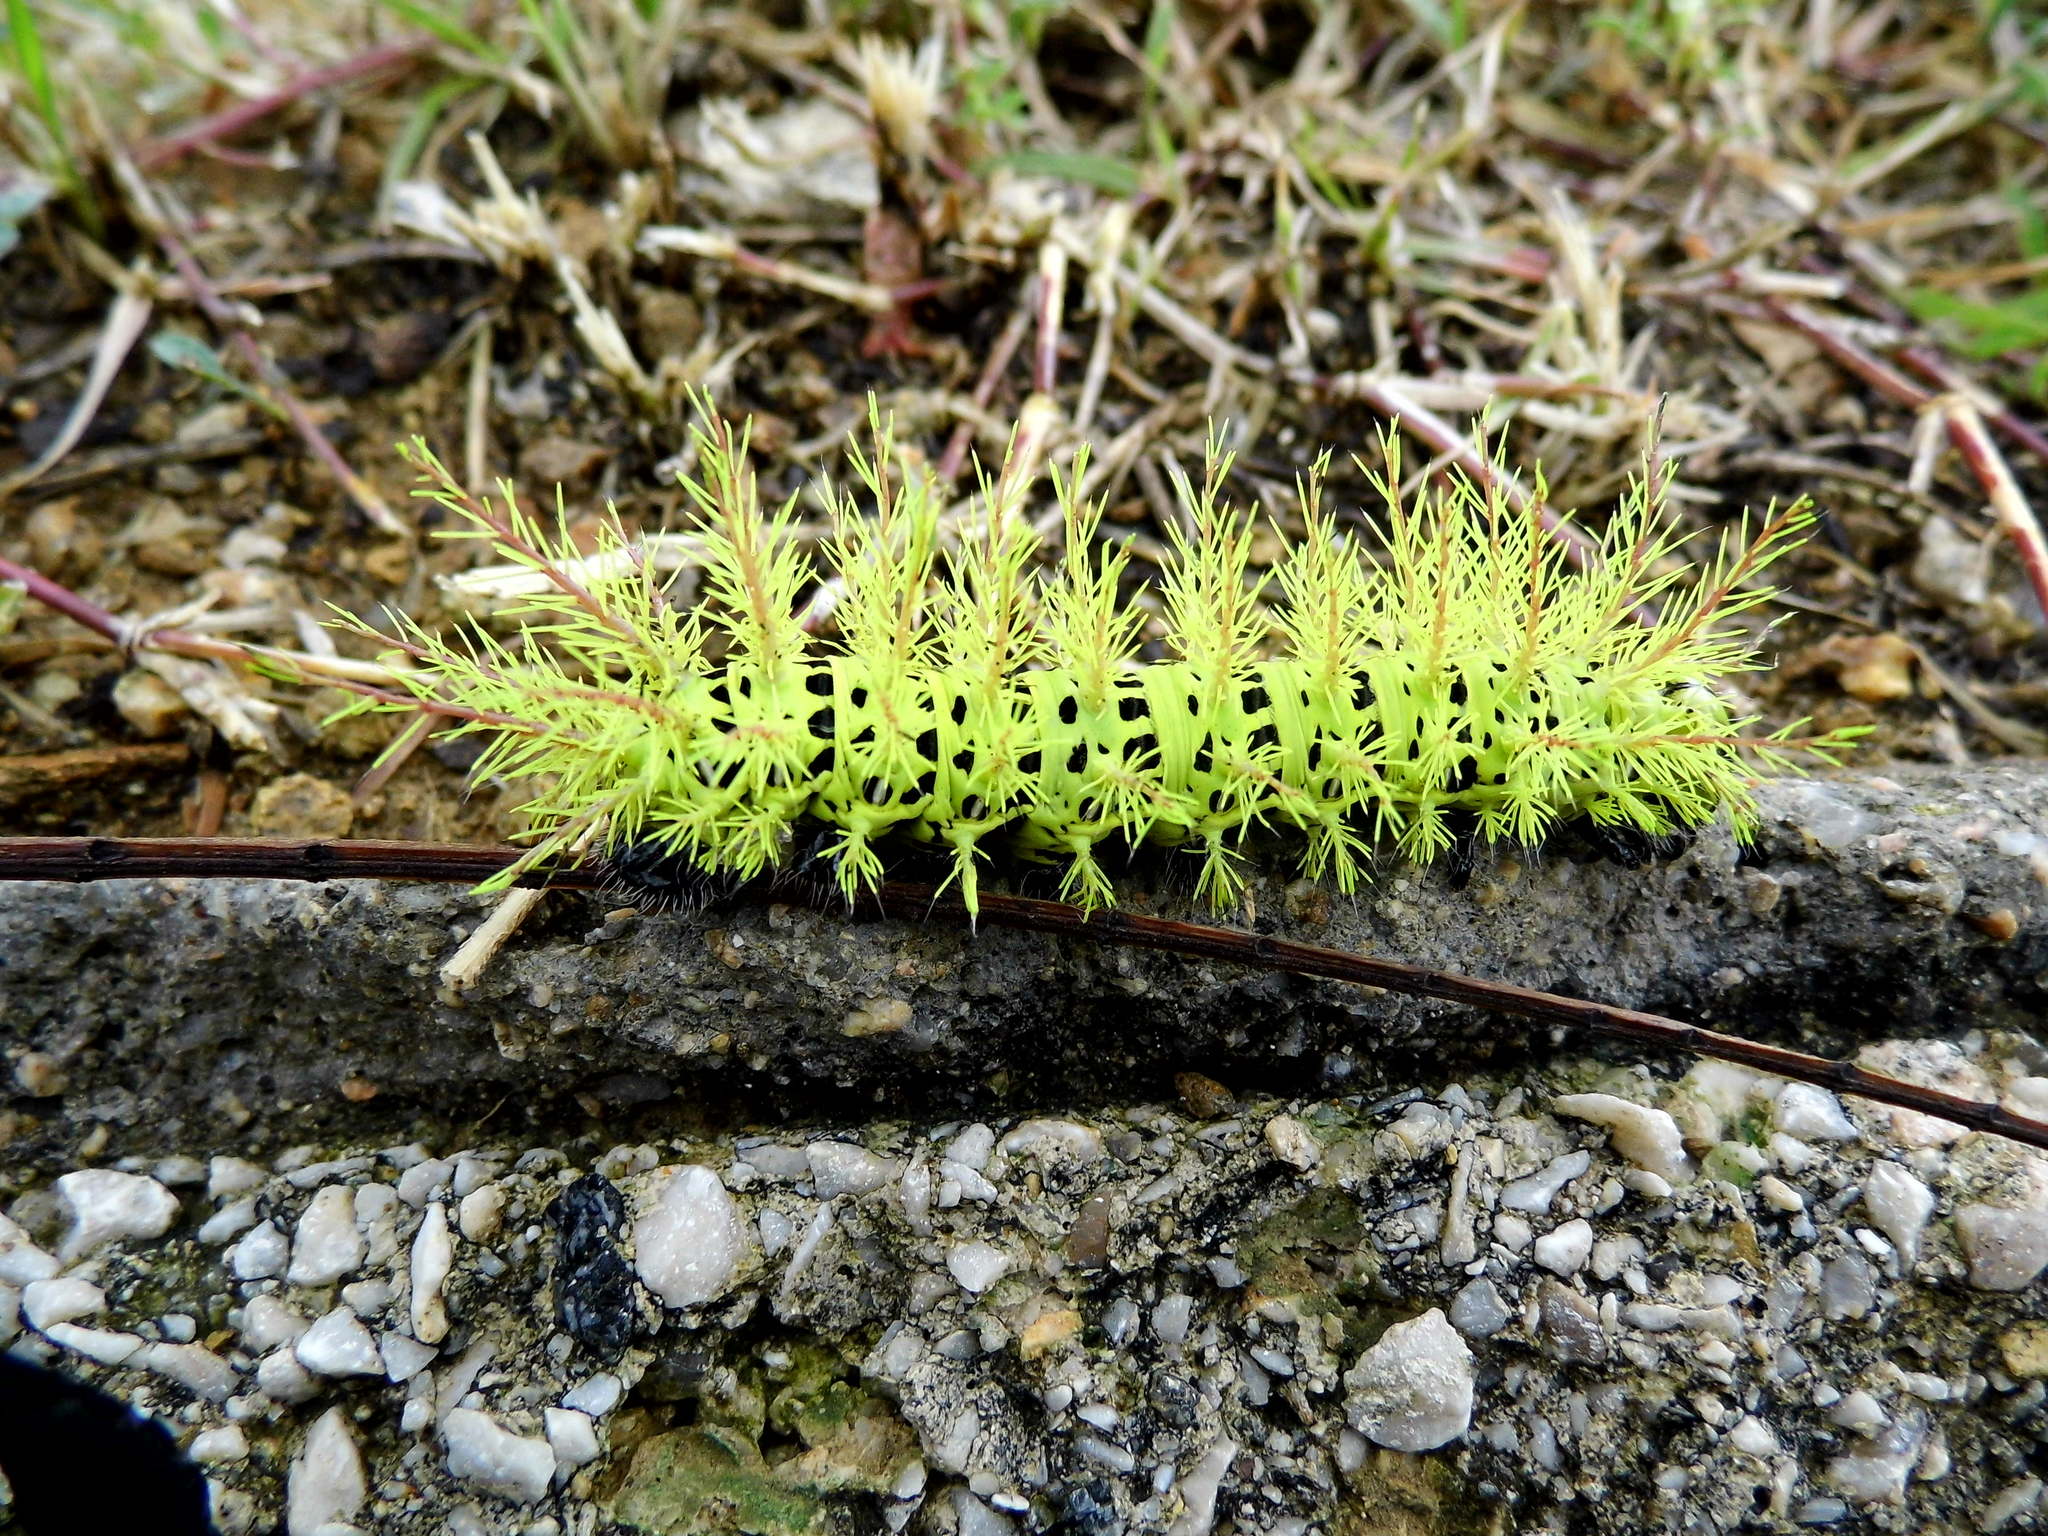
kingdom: Animalia
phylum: Arthropoda
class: Insecta
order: Lepidoptera
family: Saturniidae
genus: Automeris
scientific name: Automeris metzli
